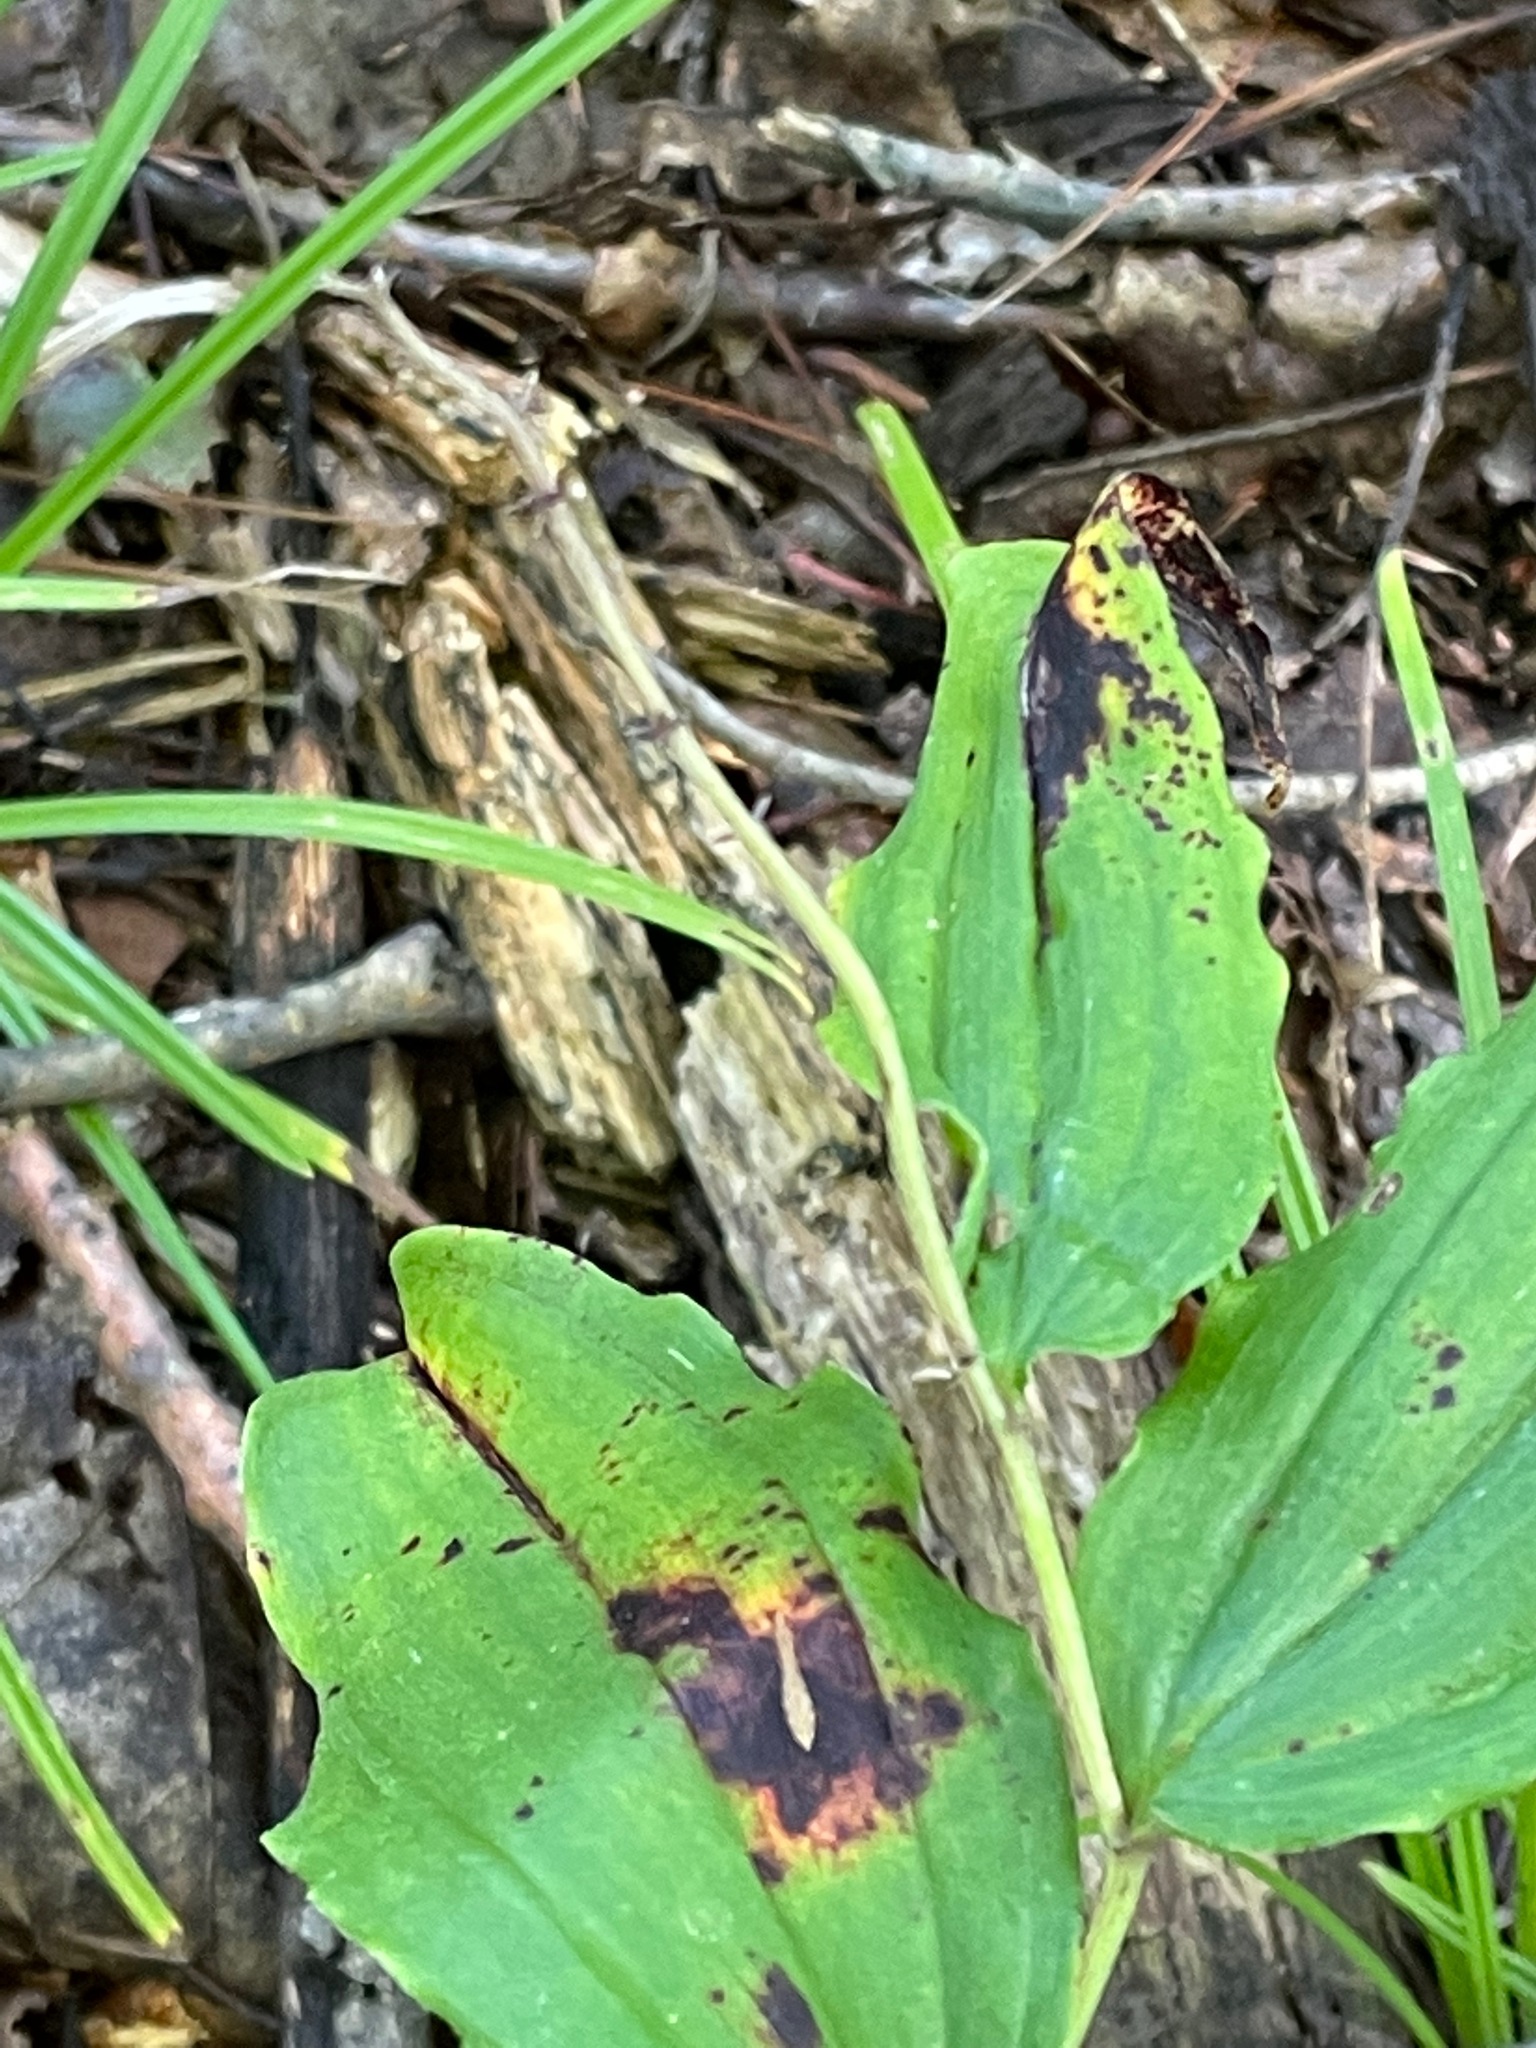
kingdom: Plantae
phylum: Tracheophyta
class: Liliopsida
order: Asparagales
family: Asparagaceae
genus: Maianthemum
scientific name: Maianthemum racemosum
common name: False spikenard
